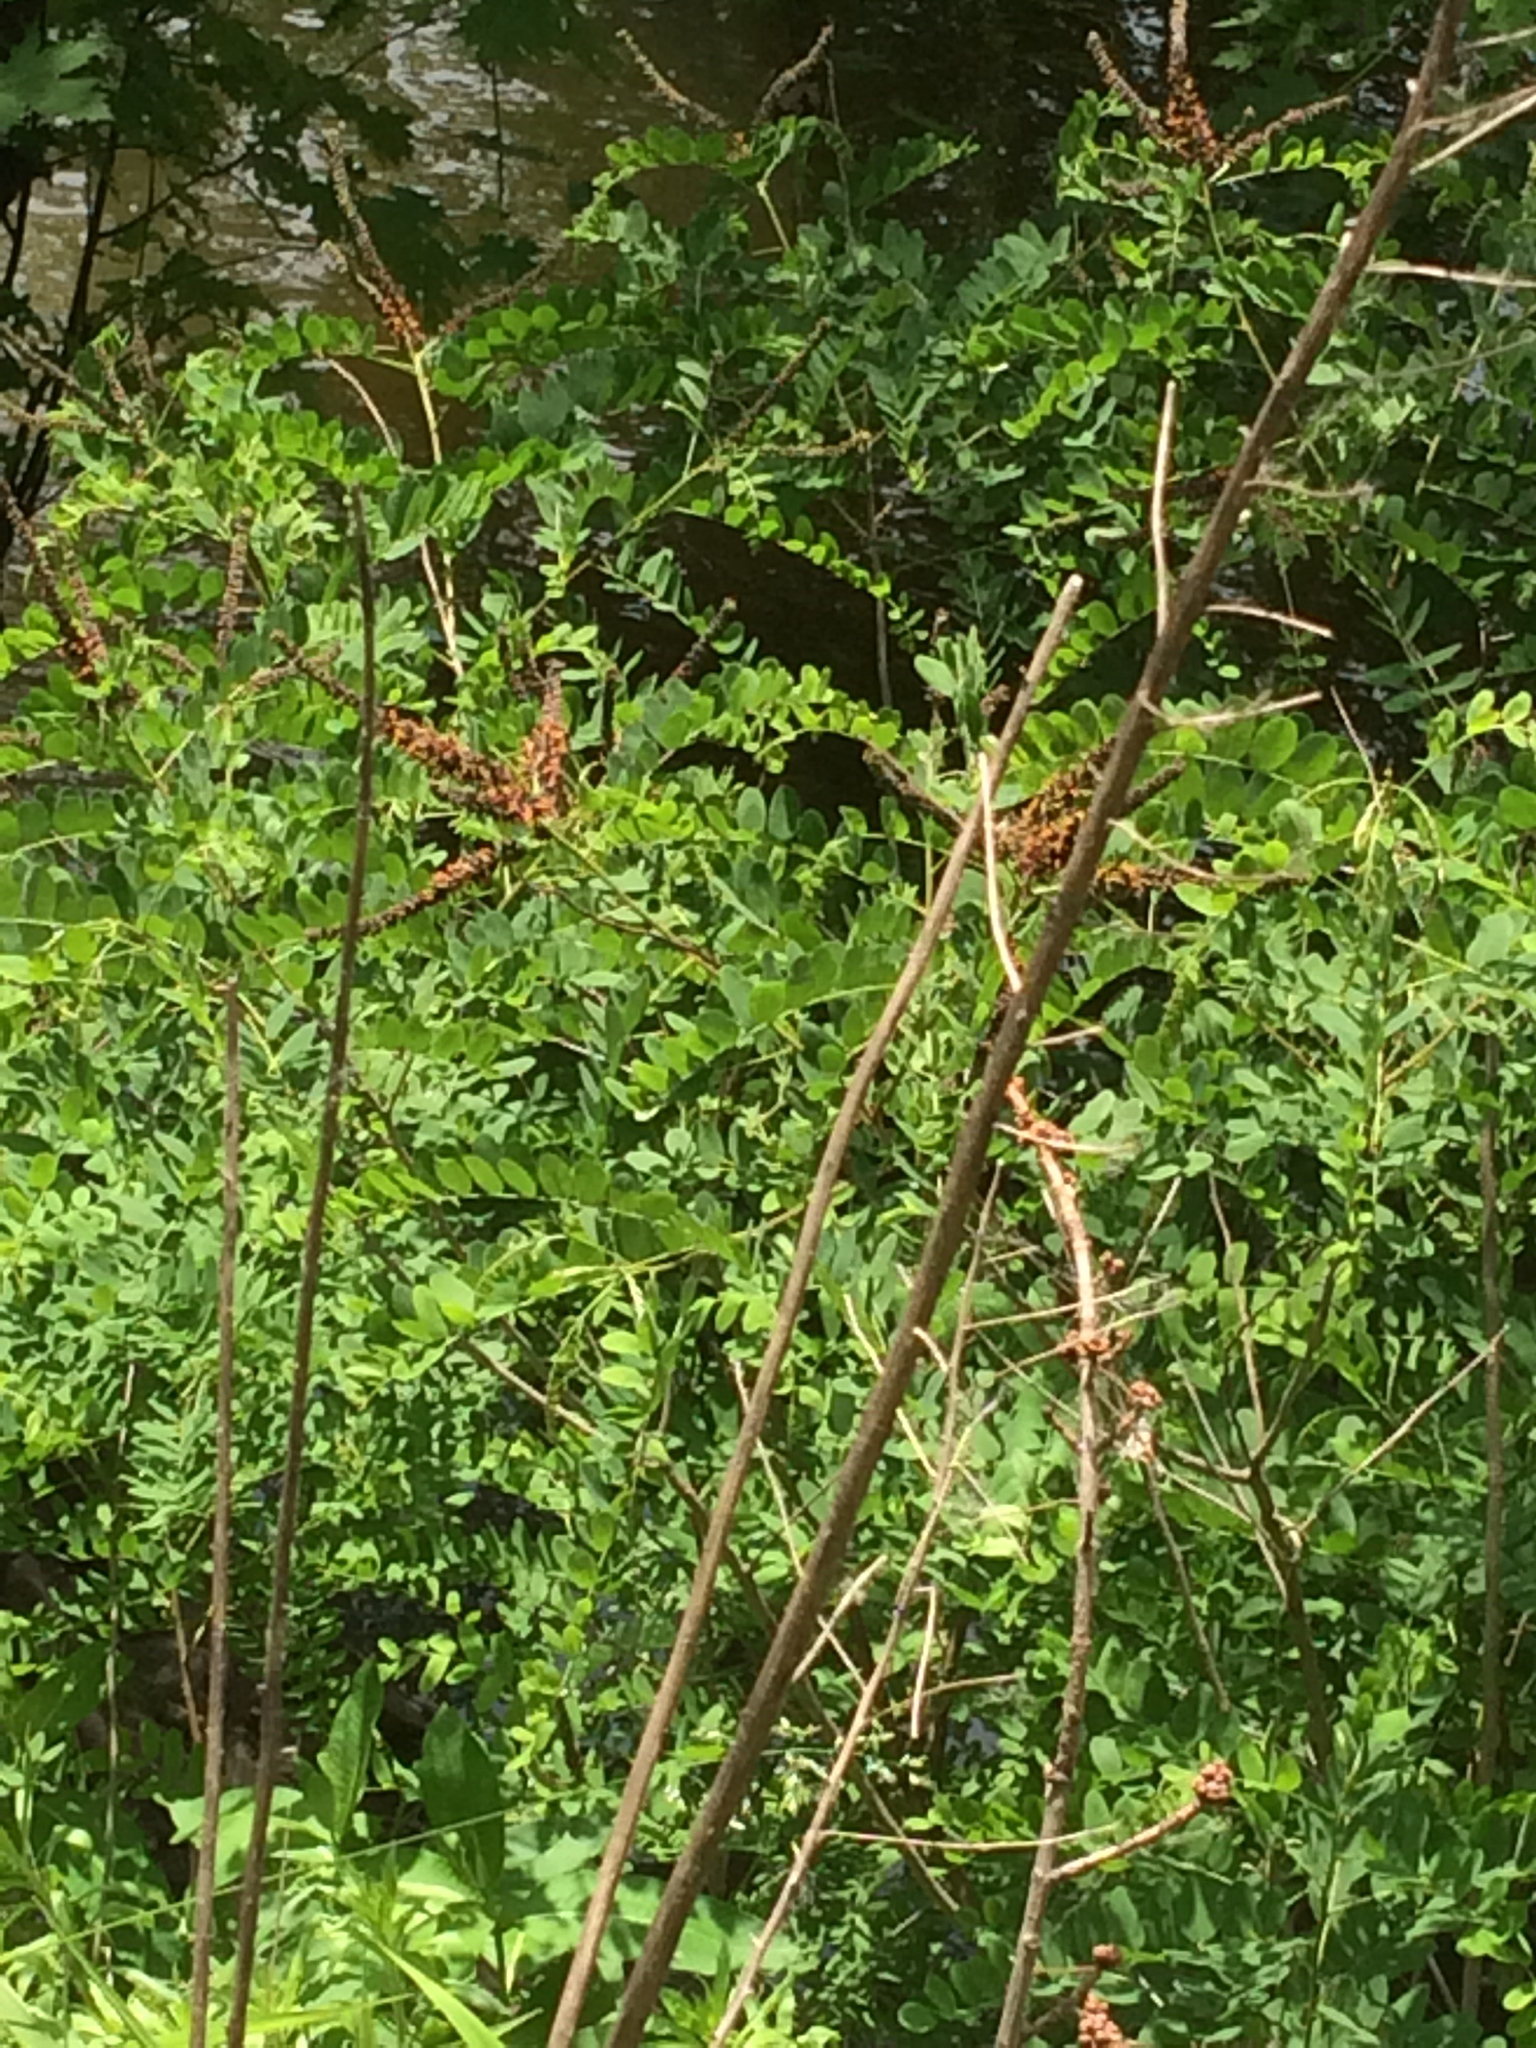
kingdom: Plantae
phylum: Tracheophyta
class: Magnoliopsida
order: Fabales
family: Fabaceae
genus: Amorpha
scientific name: Amorpha fruticosa
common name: False indigo
